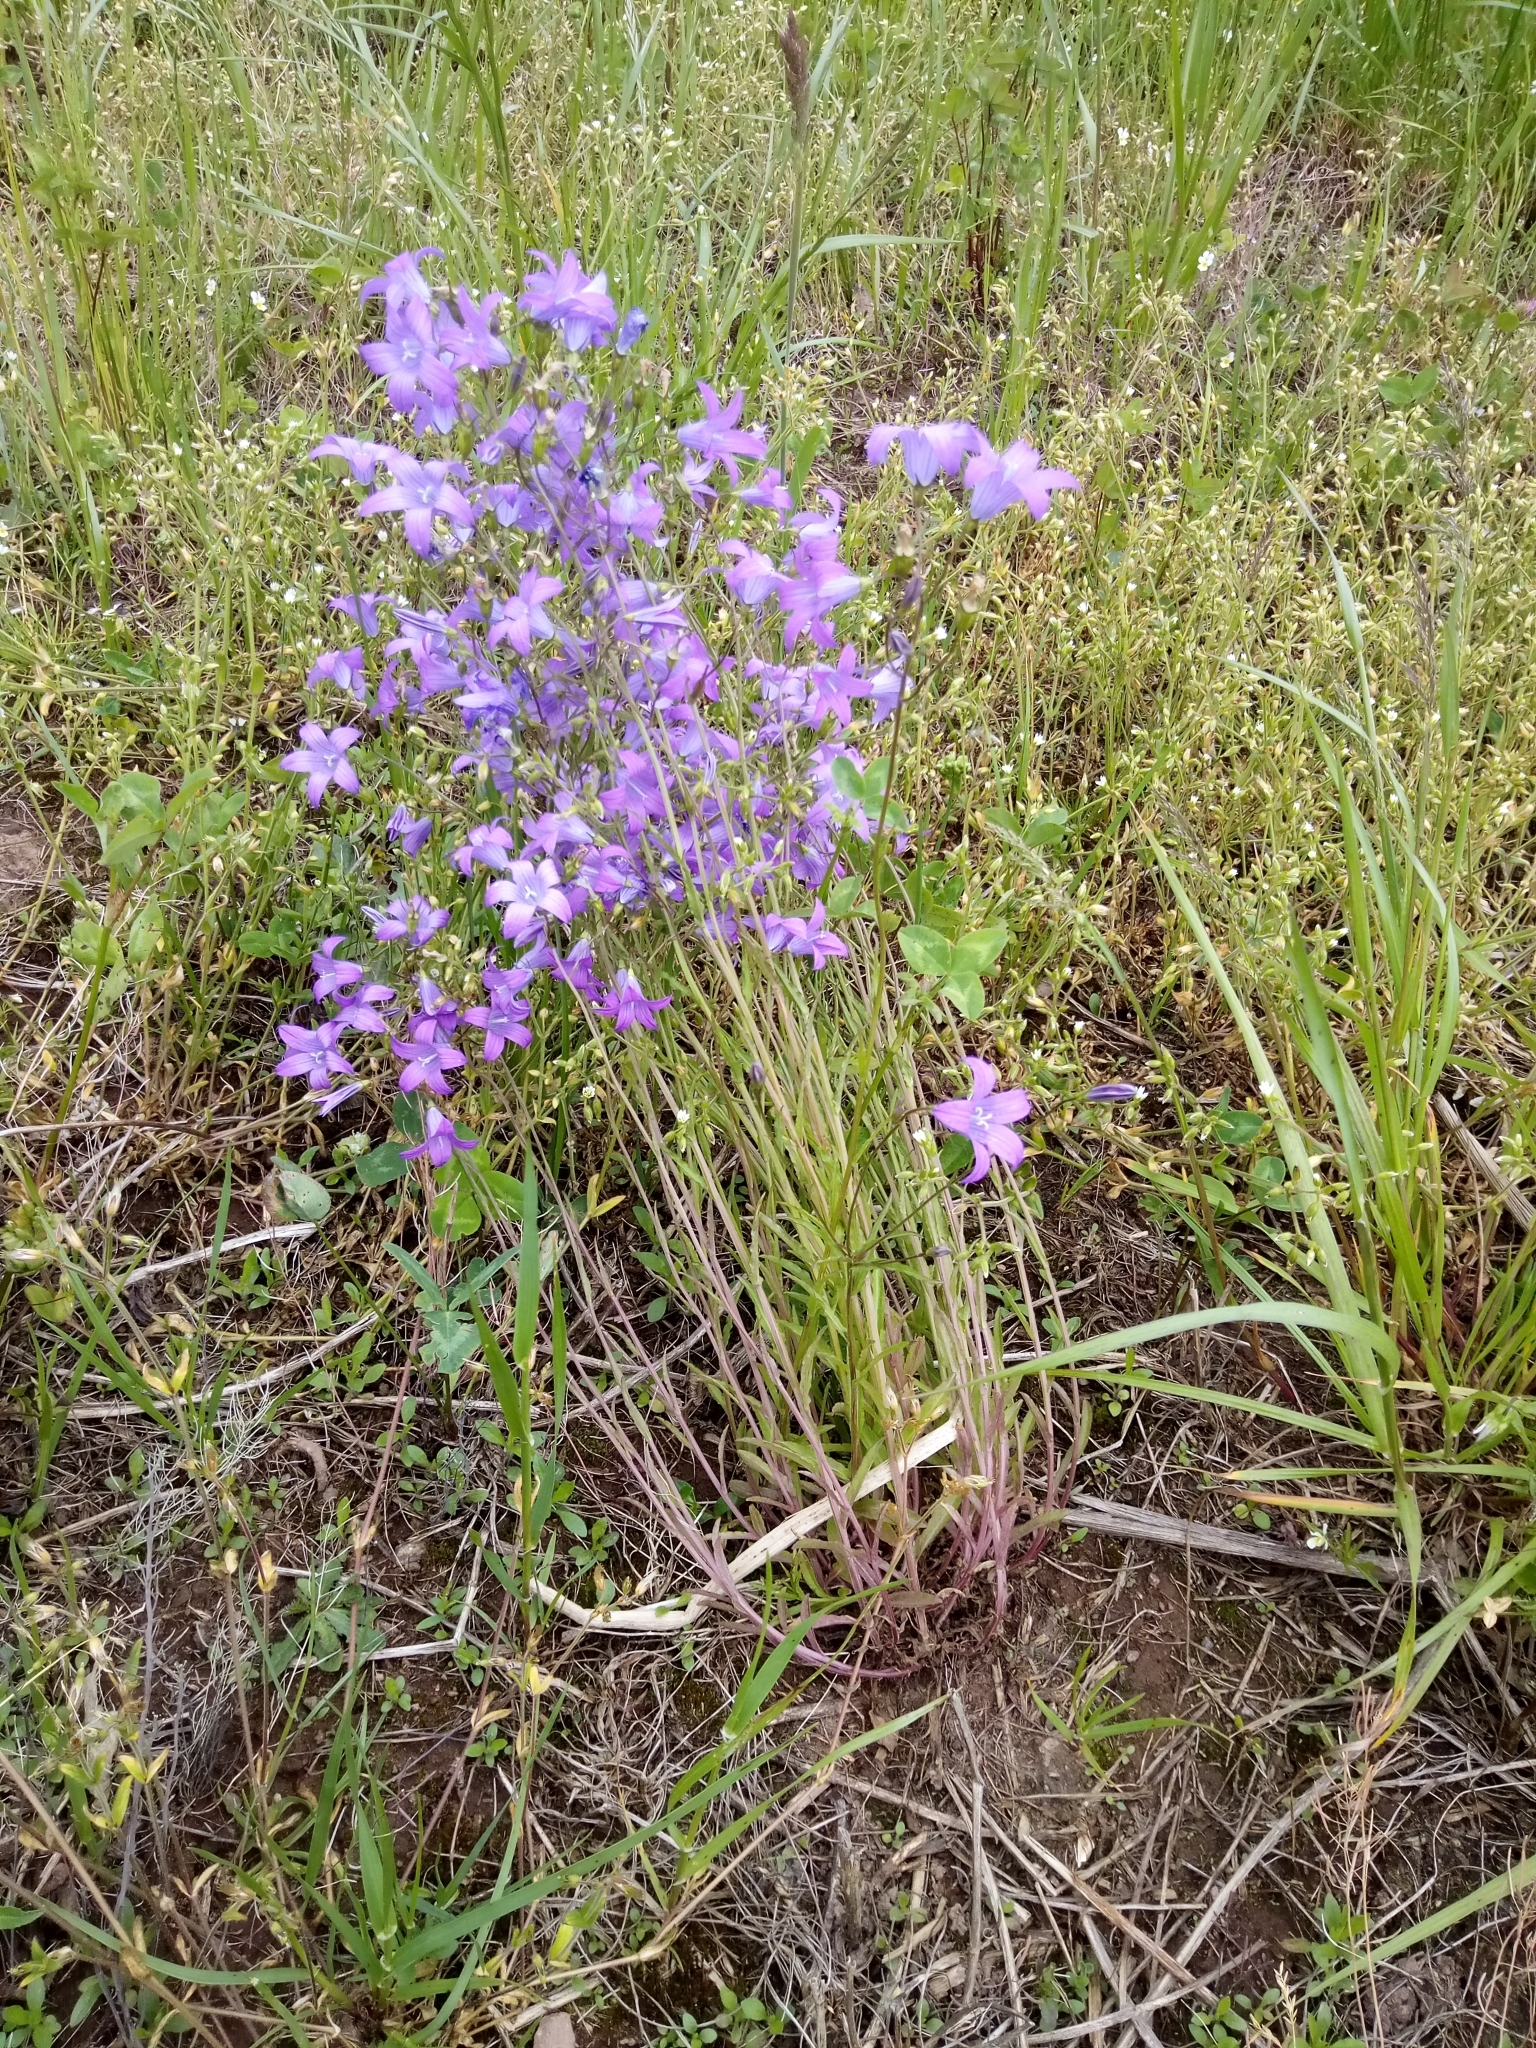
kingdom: Plantae
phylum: Tracheophyta
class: Magnoliopsida
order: Asterales
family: Campanulaceae
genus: Campanula
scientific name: Campanula patula
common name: Spreading bellflower
